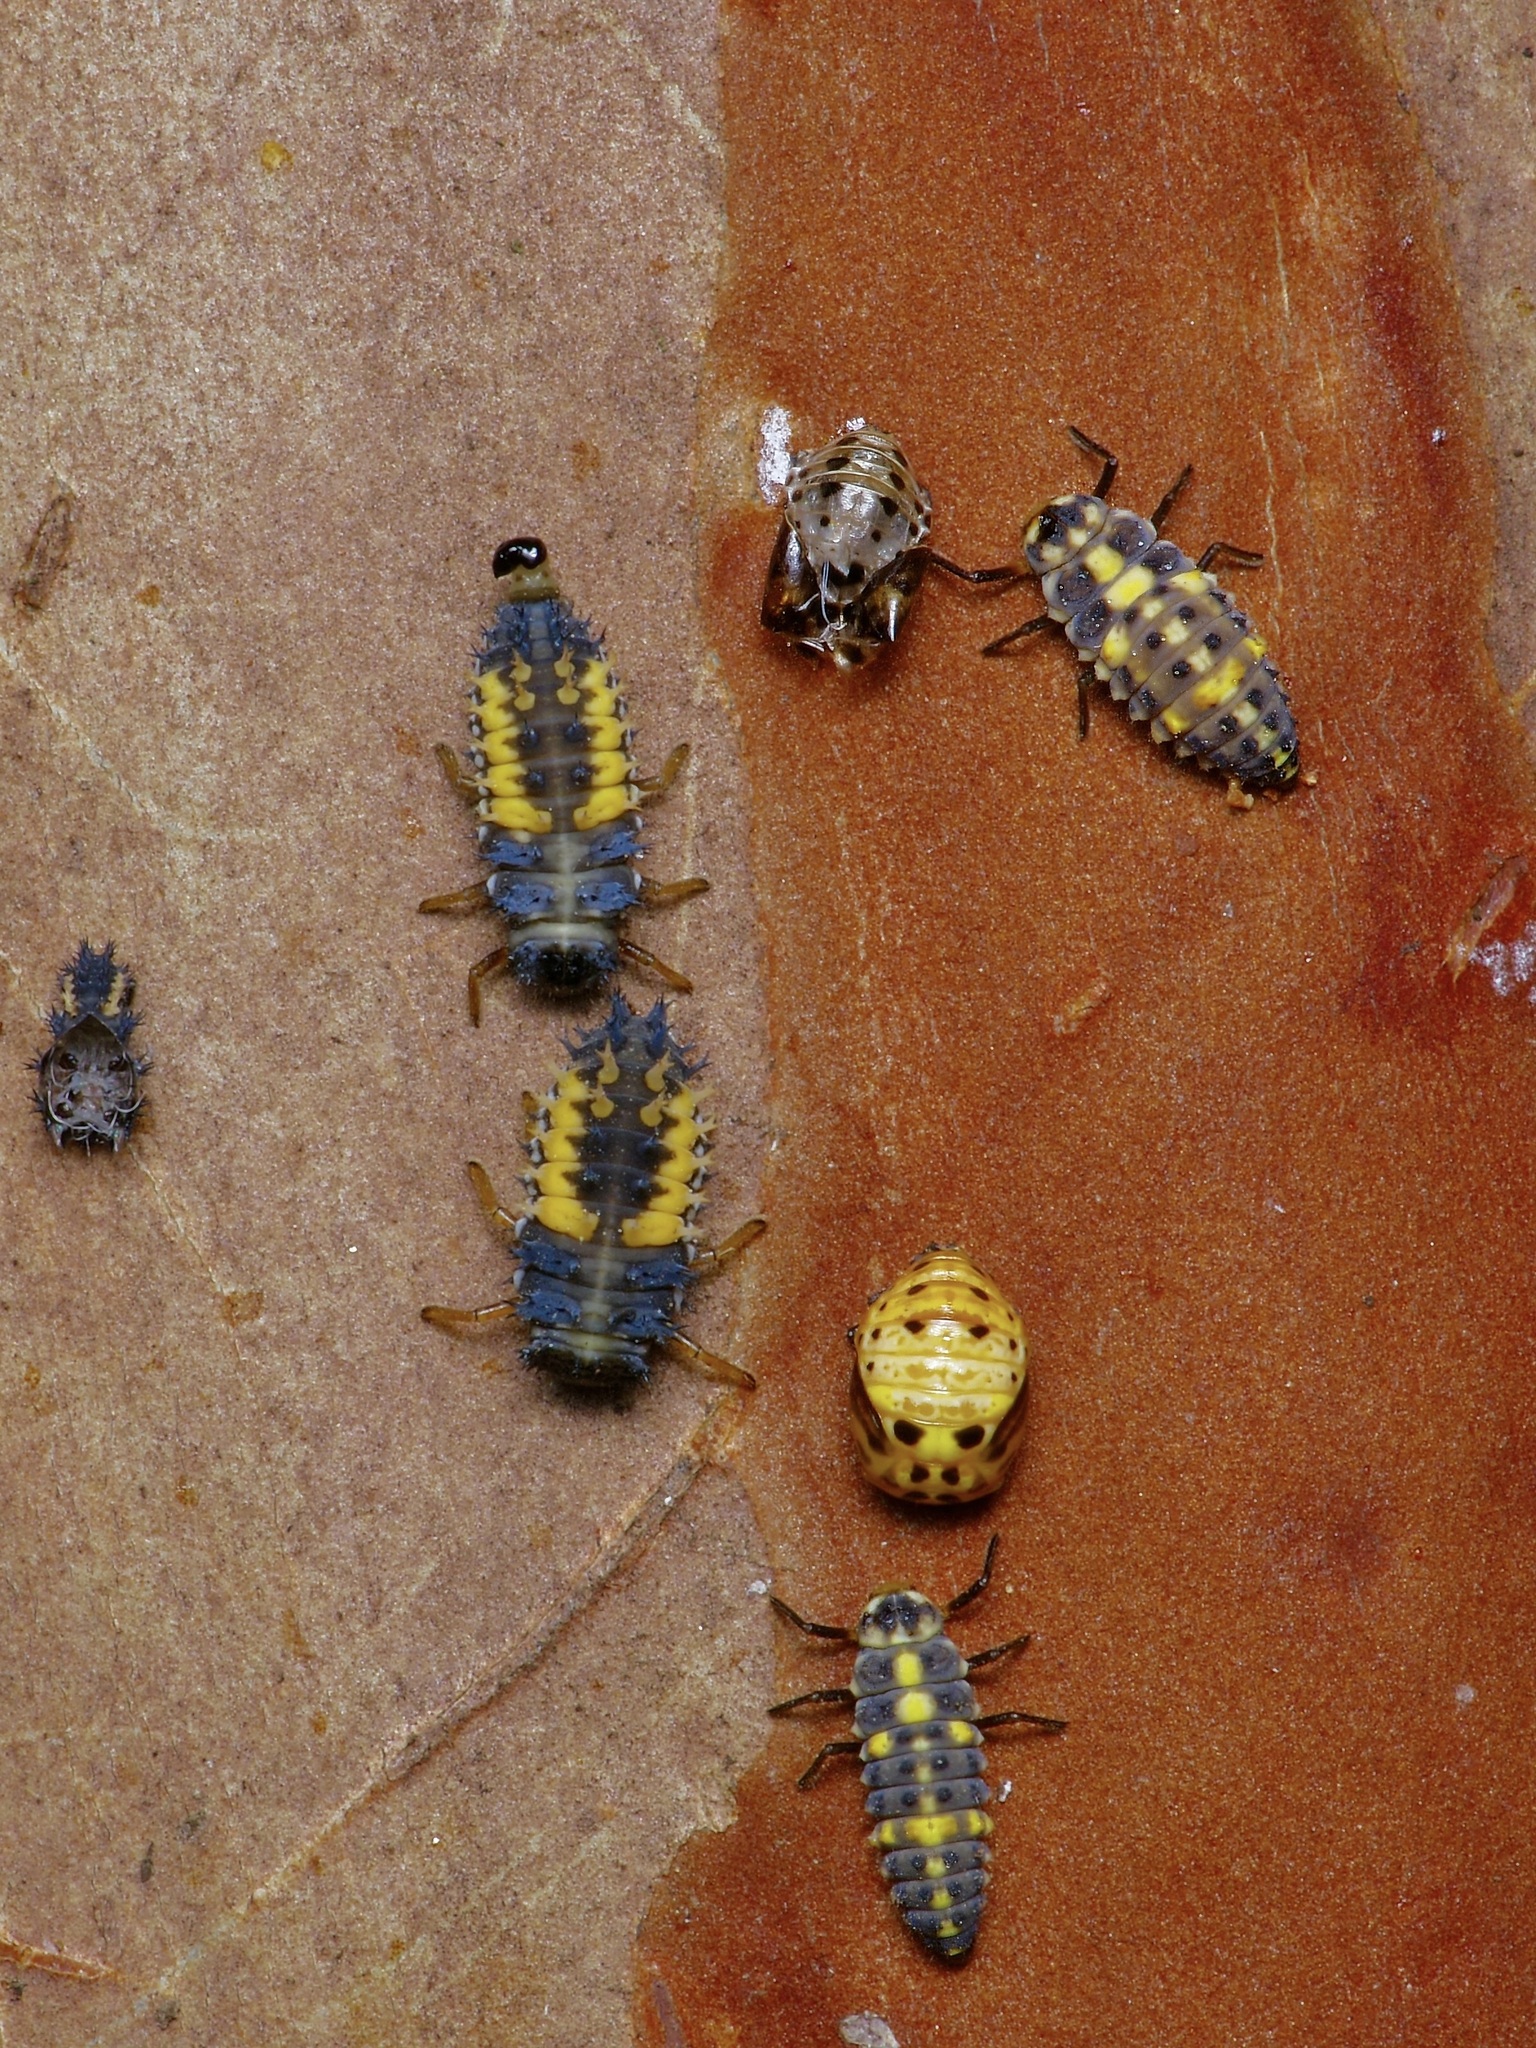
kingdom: Animalia
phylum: Arthropoda
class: Insecta
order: Coleoptera
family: Coccinellidae
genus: Olla
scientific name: Olla v-nigrum
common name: Ashy gray lady beetle
